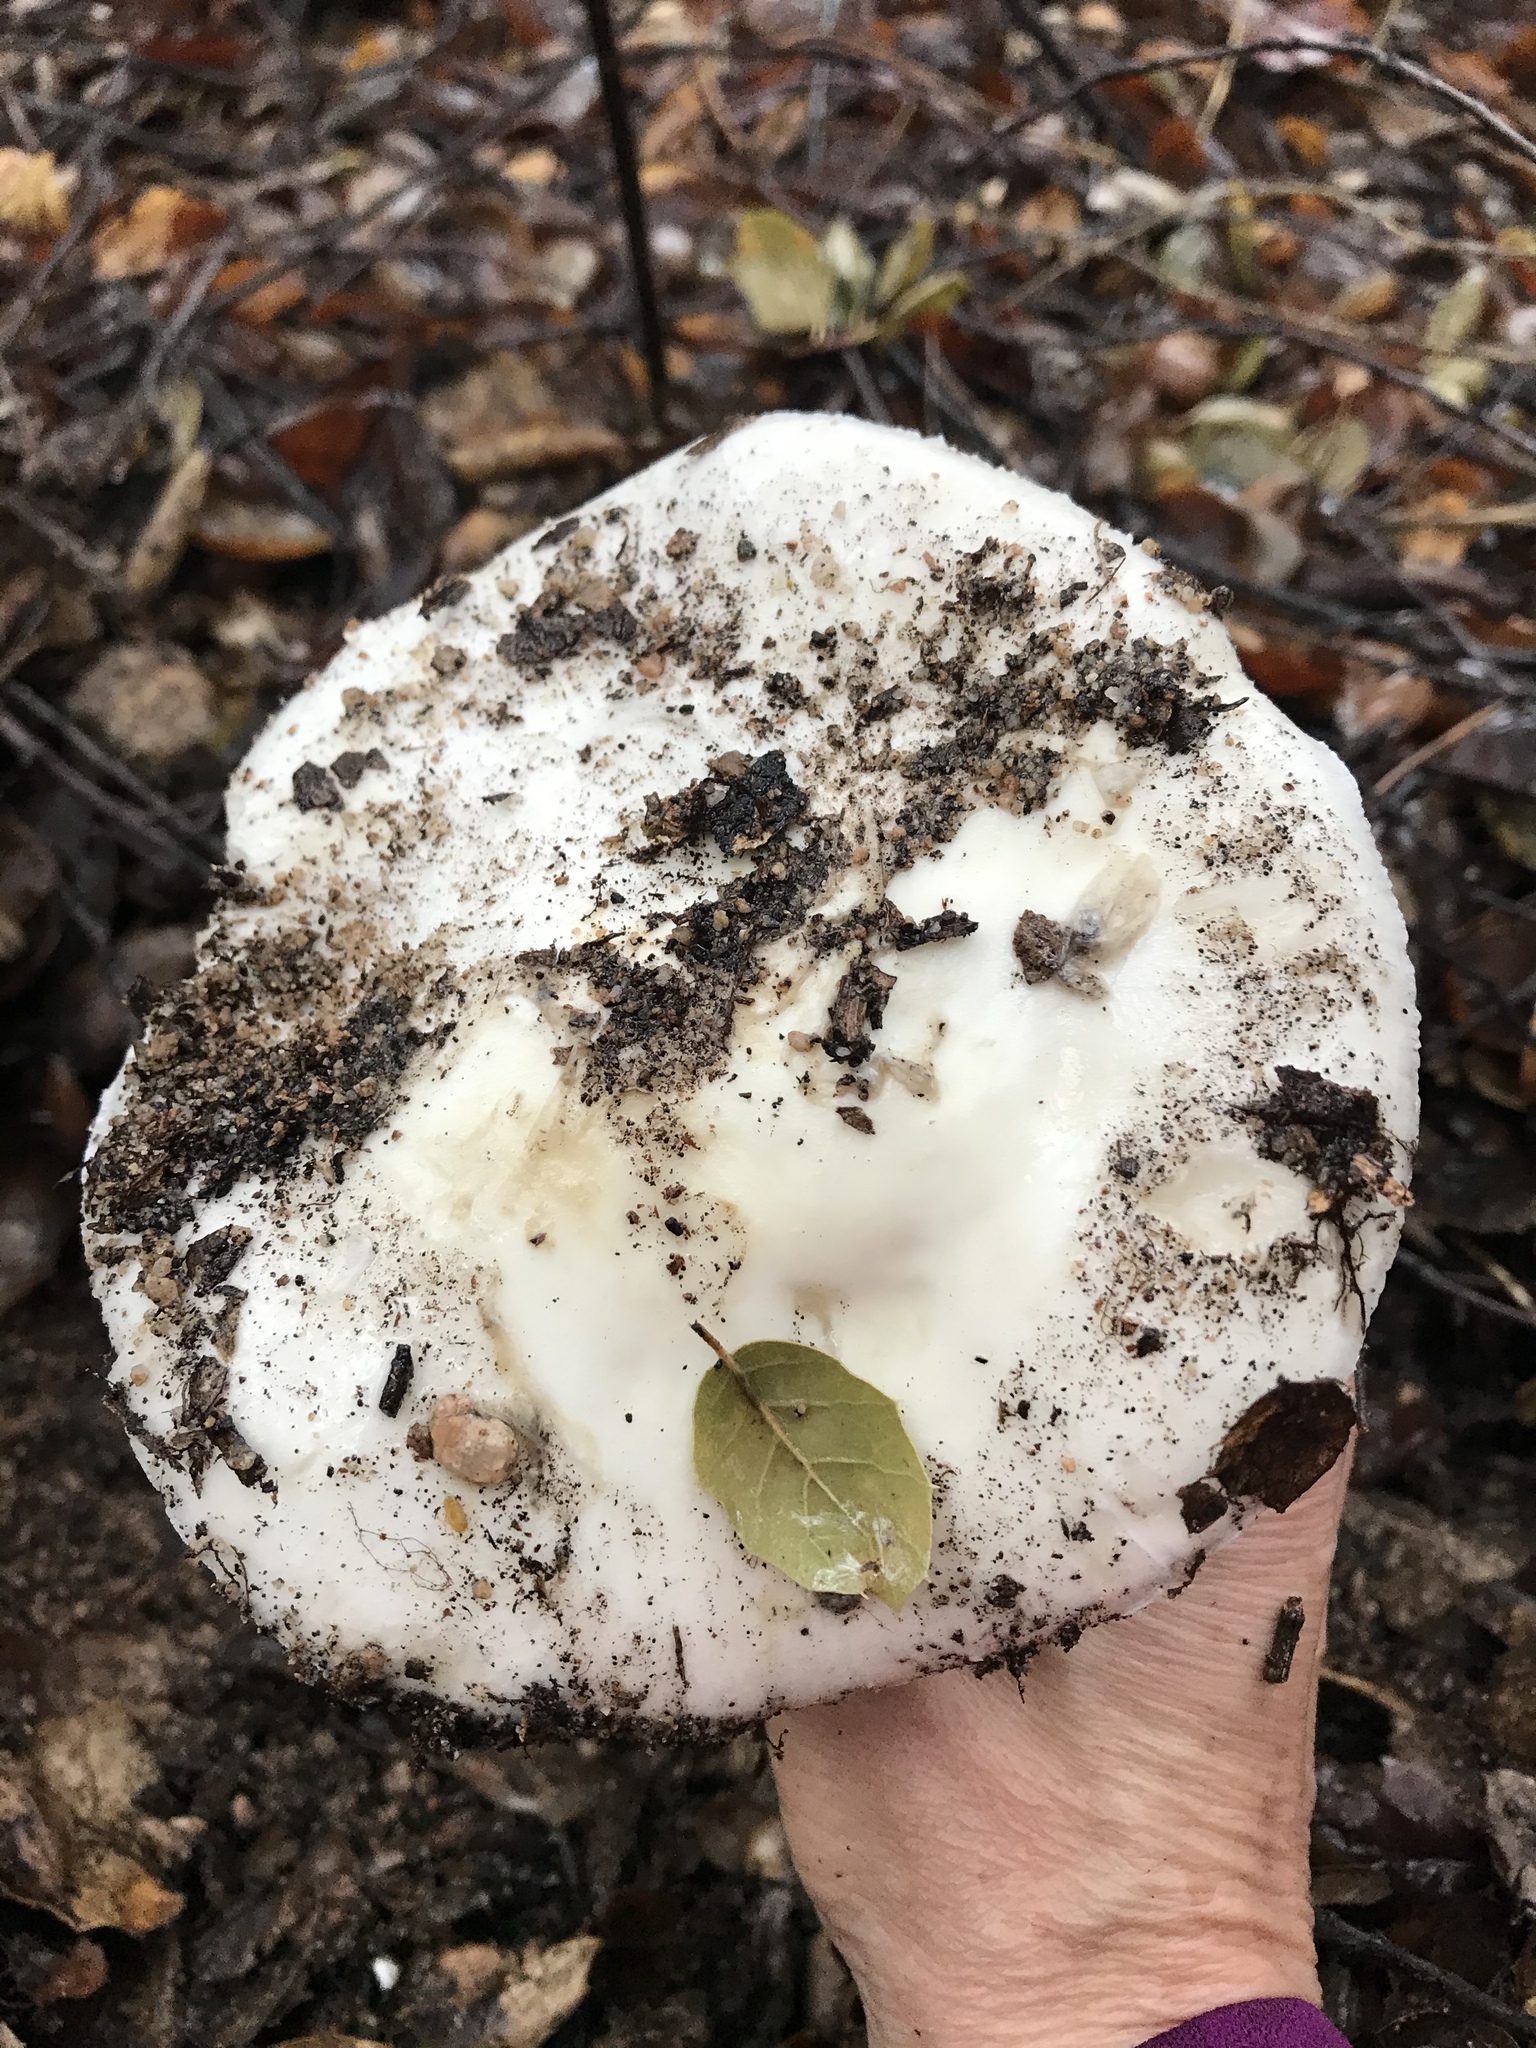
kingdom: Fungi
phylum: Basidiomycota
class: Agaricomycetes
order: Agaricales
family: Amanitaceae
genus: Amanita
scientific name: Amanita ocreata
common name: Western destroying angel
